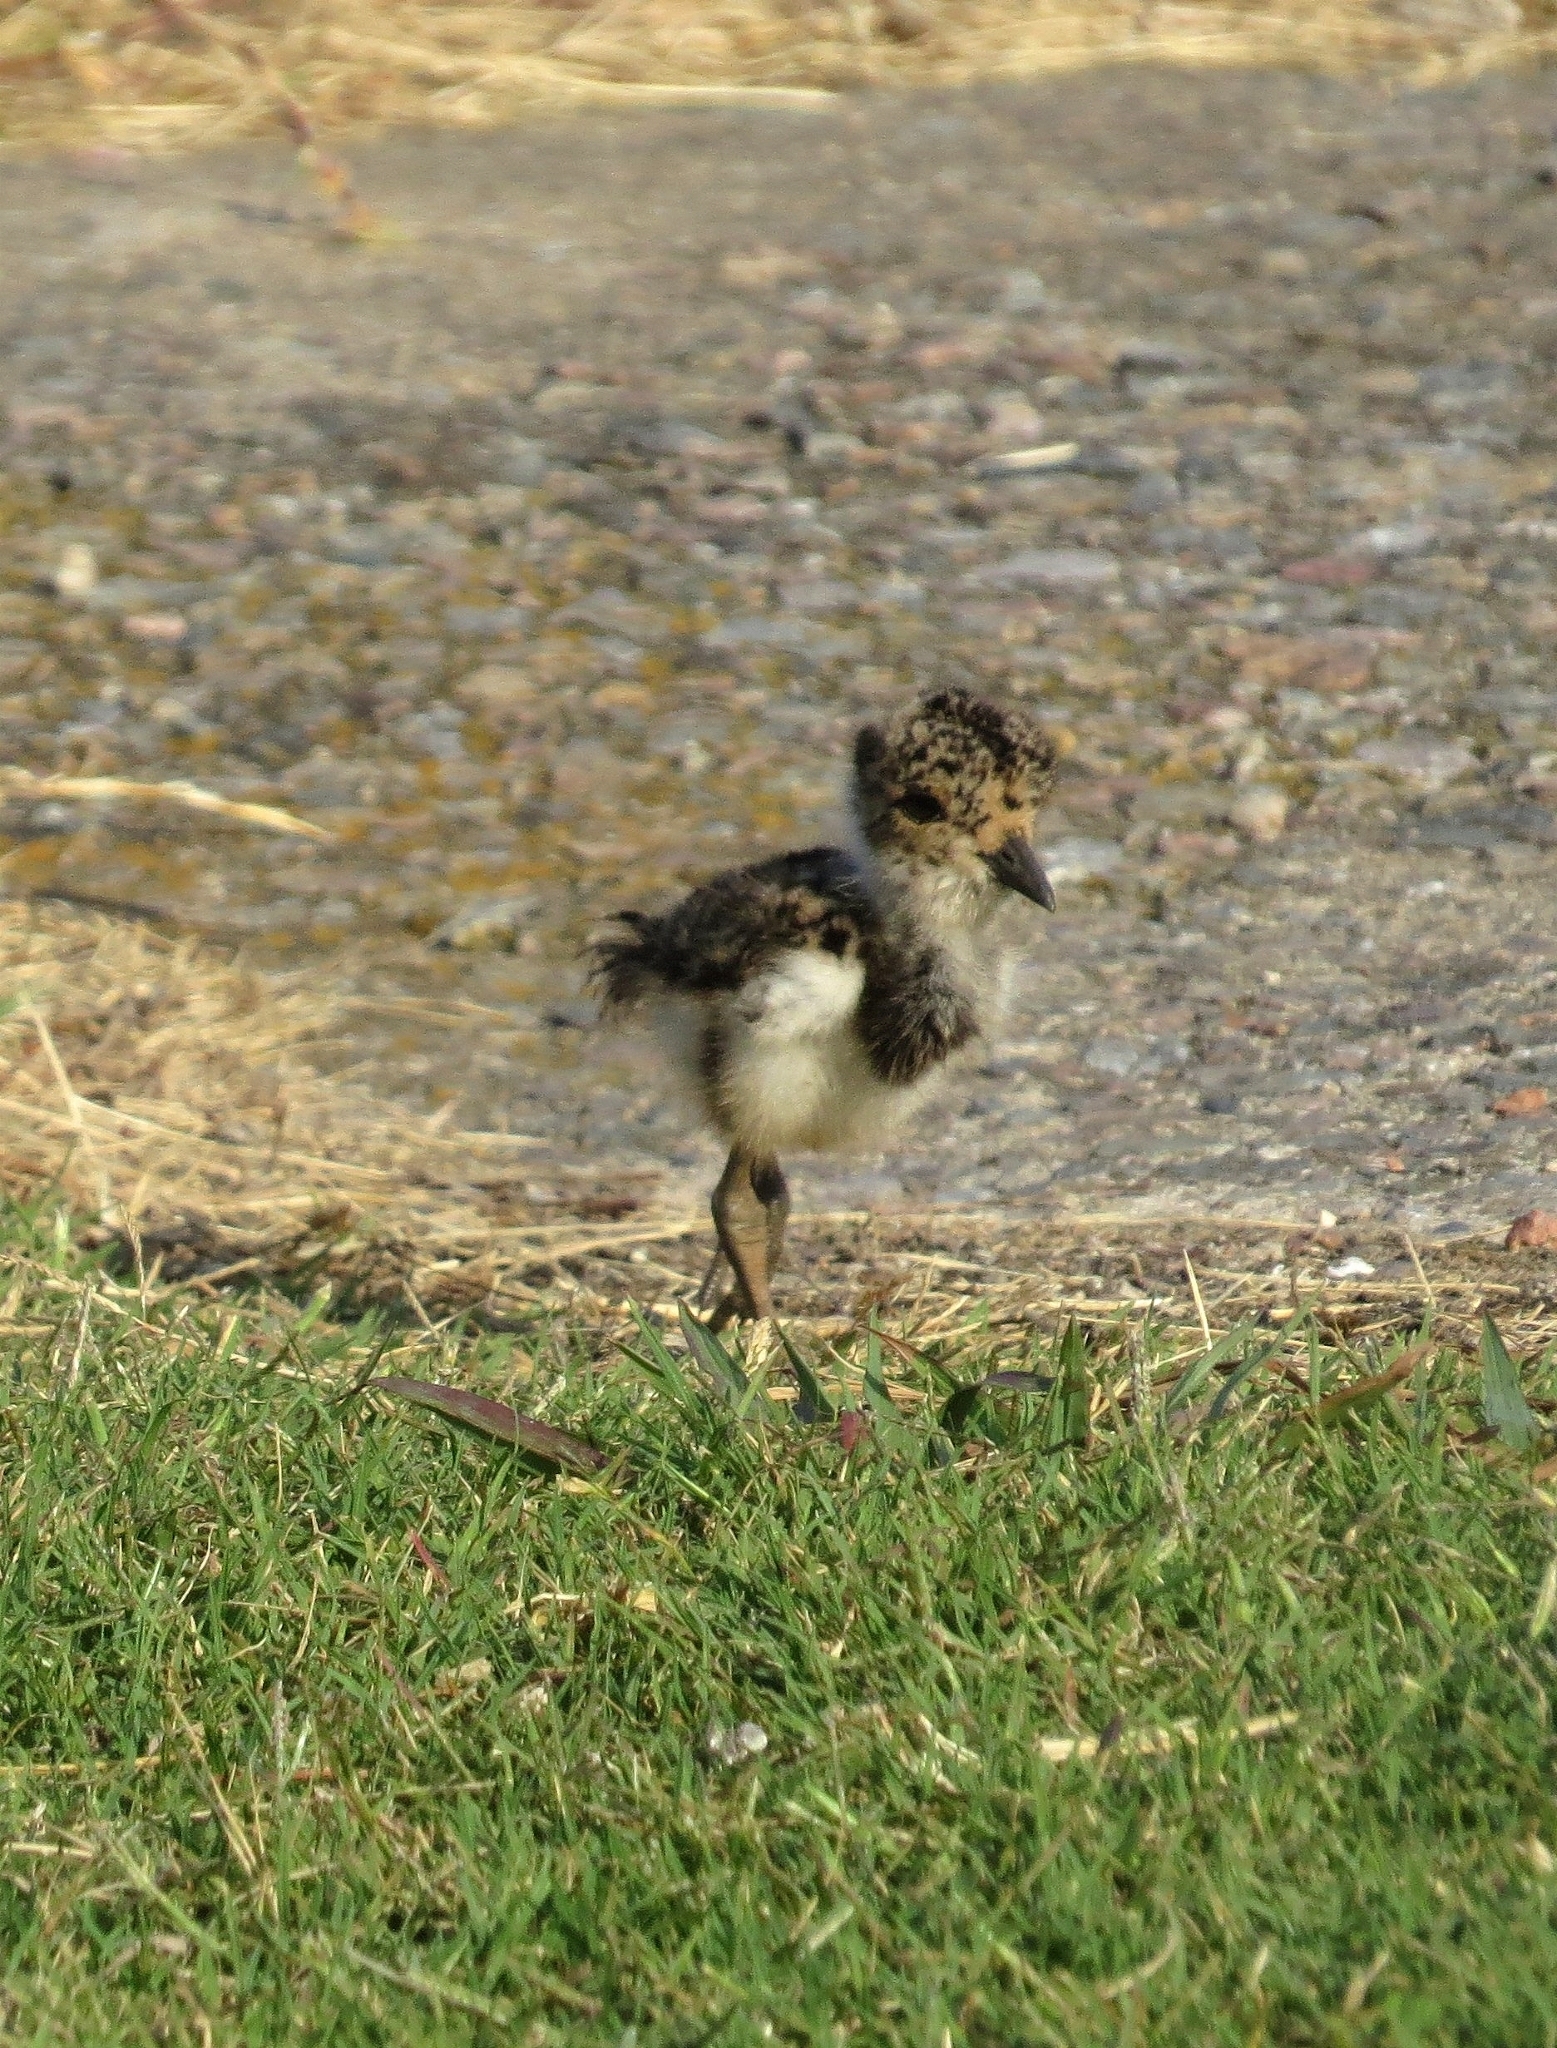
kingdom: Animalia
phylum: Chordata
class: Aves
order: Charadriiformes
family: Charadriidae
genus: Vanellus
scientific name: Vanellus chilensis
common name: Southern lapwing
